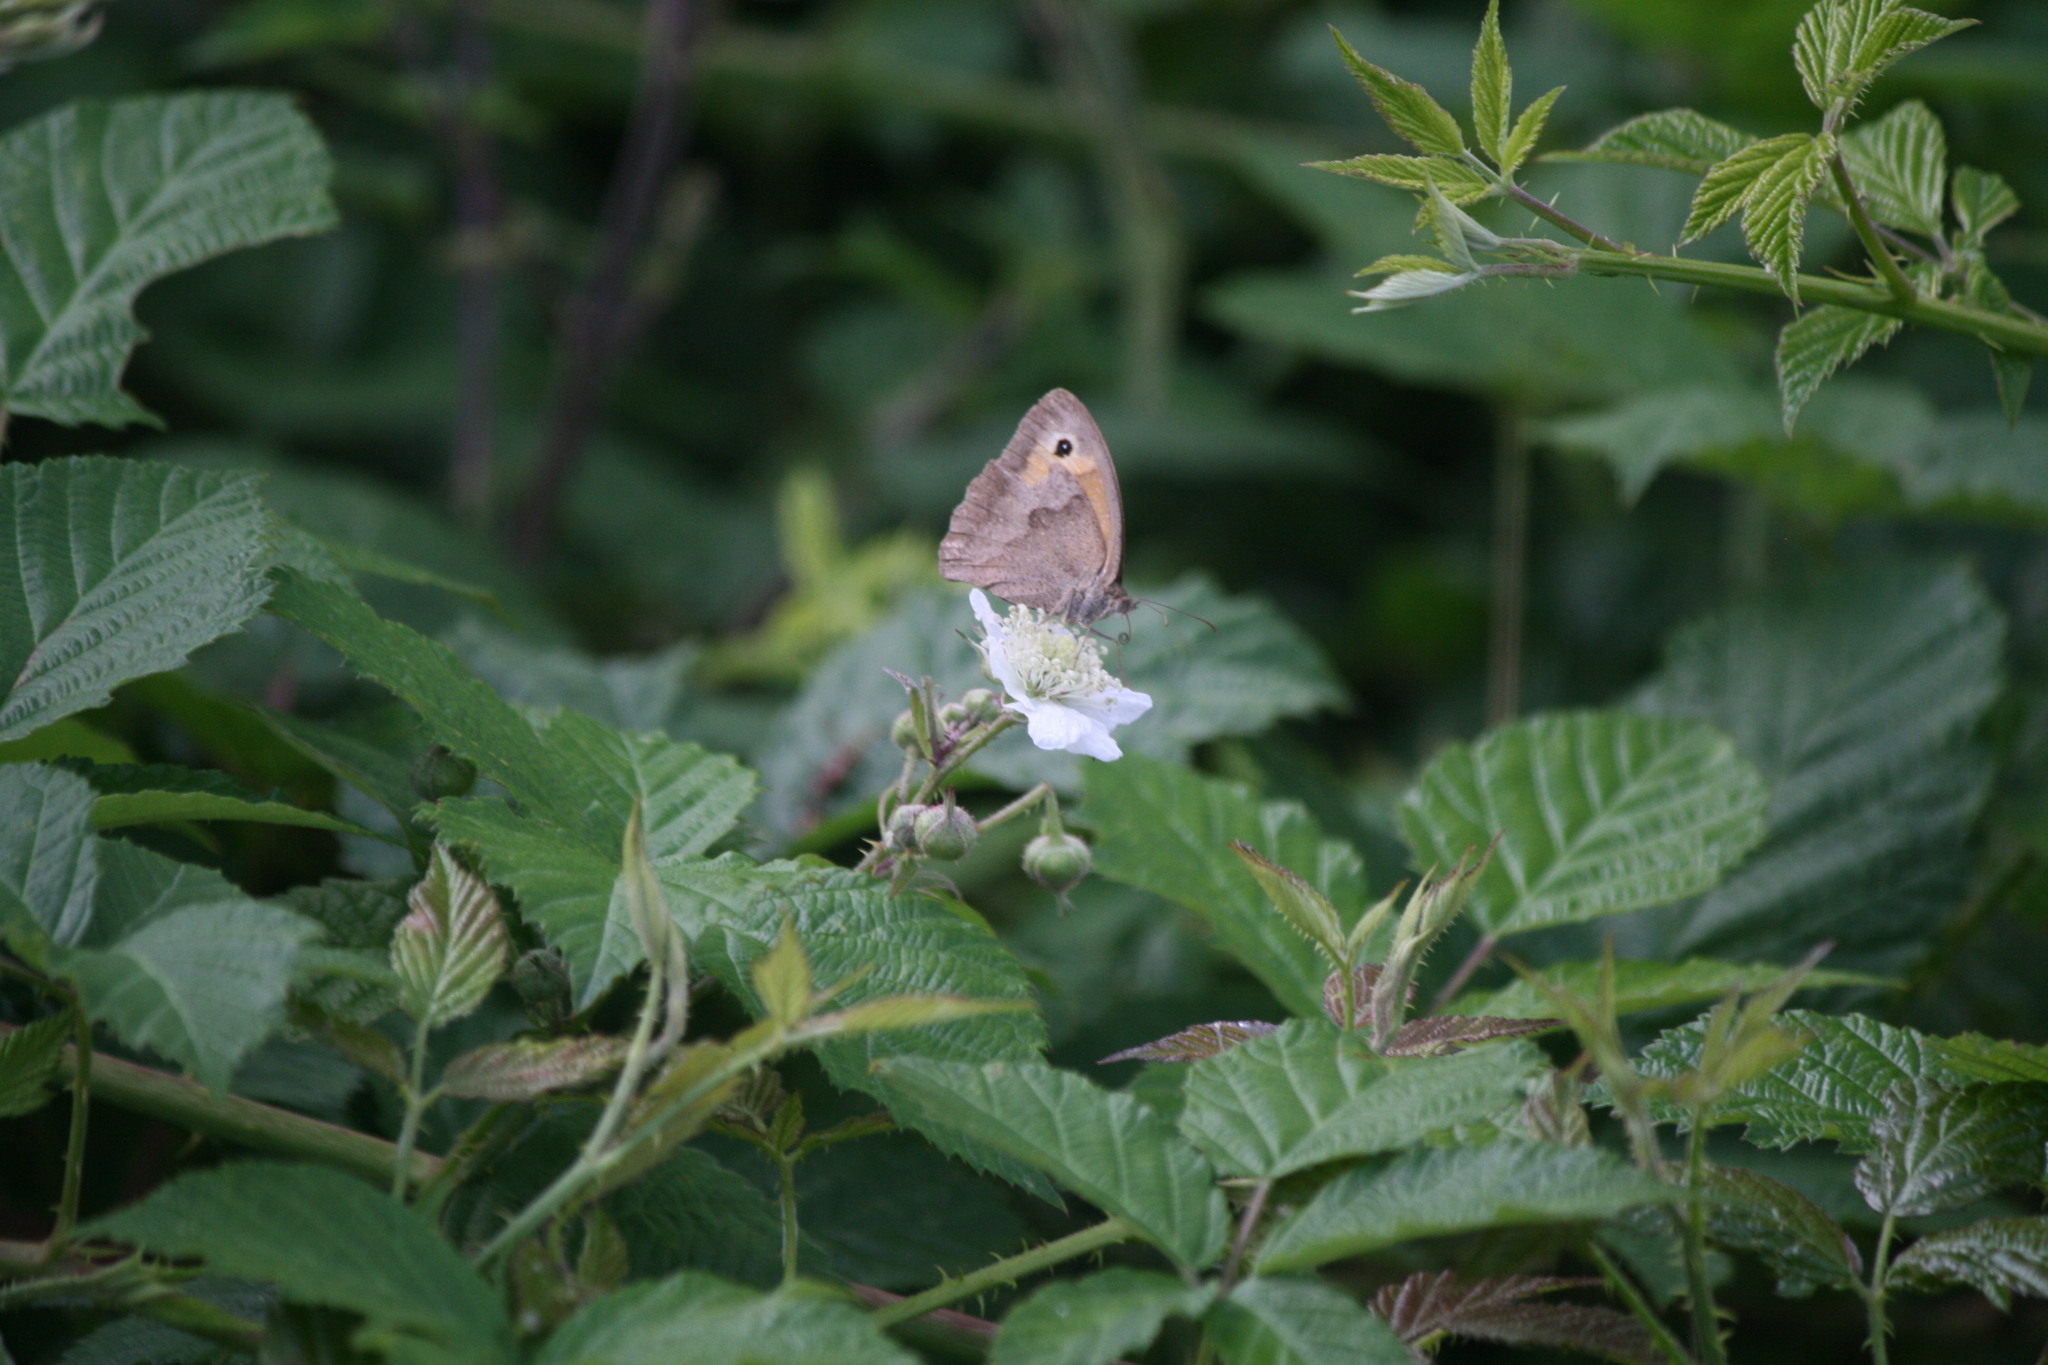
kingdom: Animalia
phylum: Arthropoda
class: Insecta
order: Lepidoptera
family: Nymphalidae
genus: Maniola
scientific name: Maniola jurtina
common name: Meadow brown
